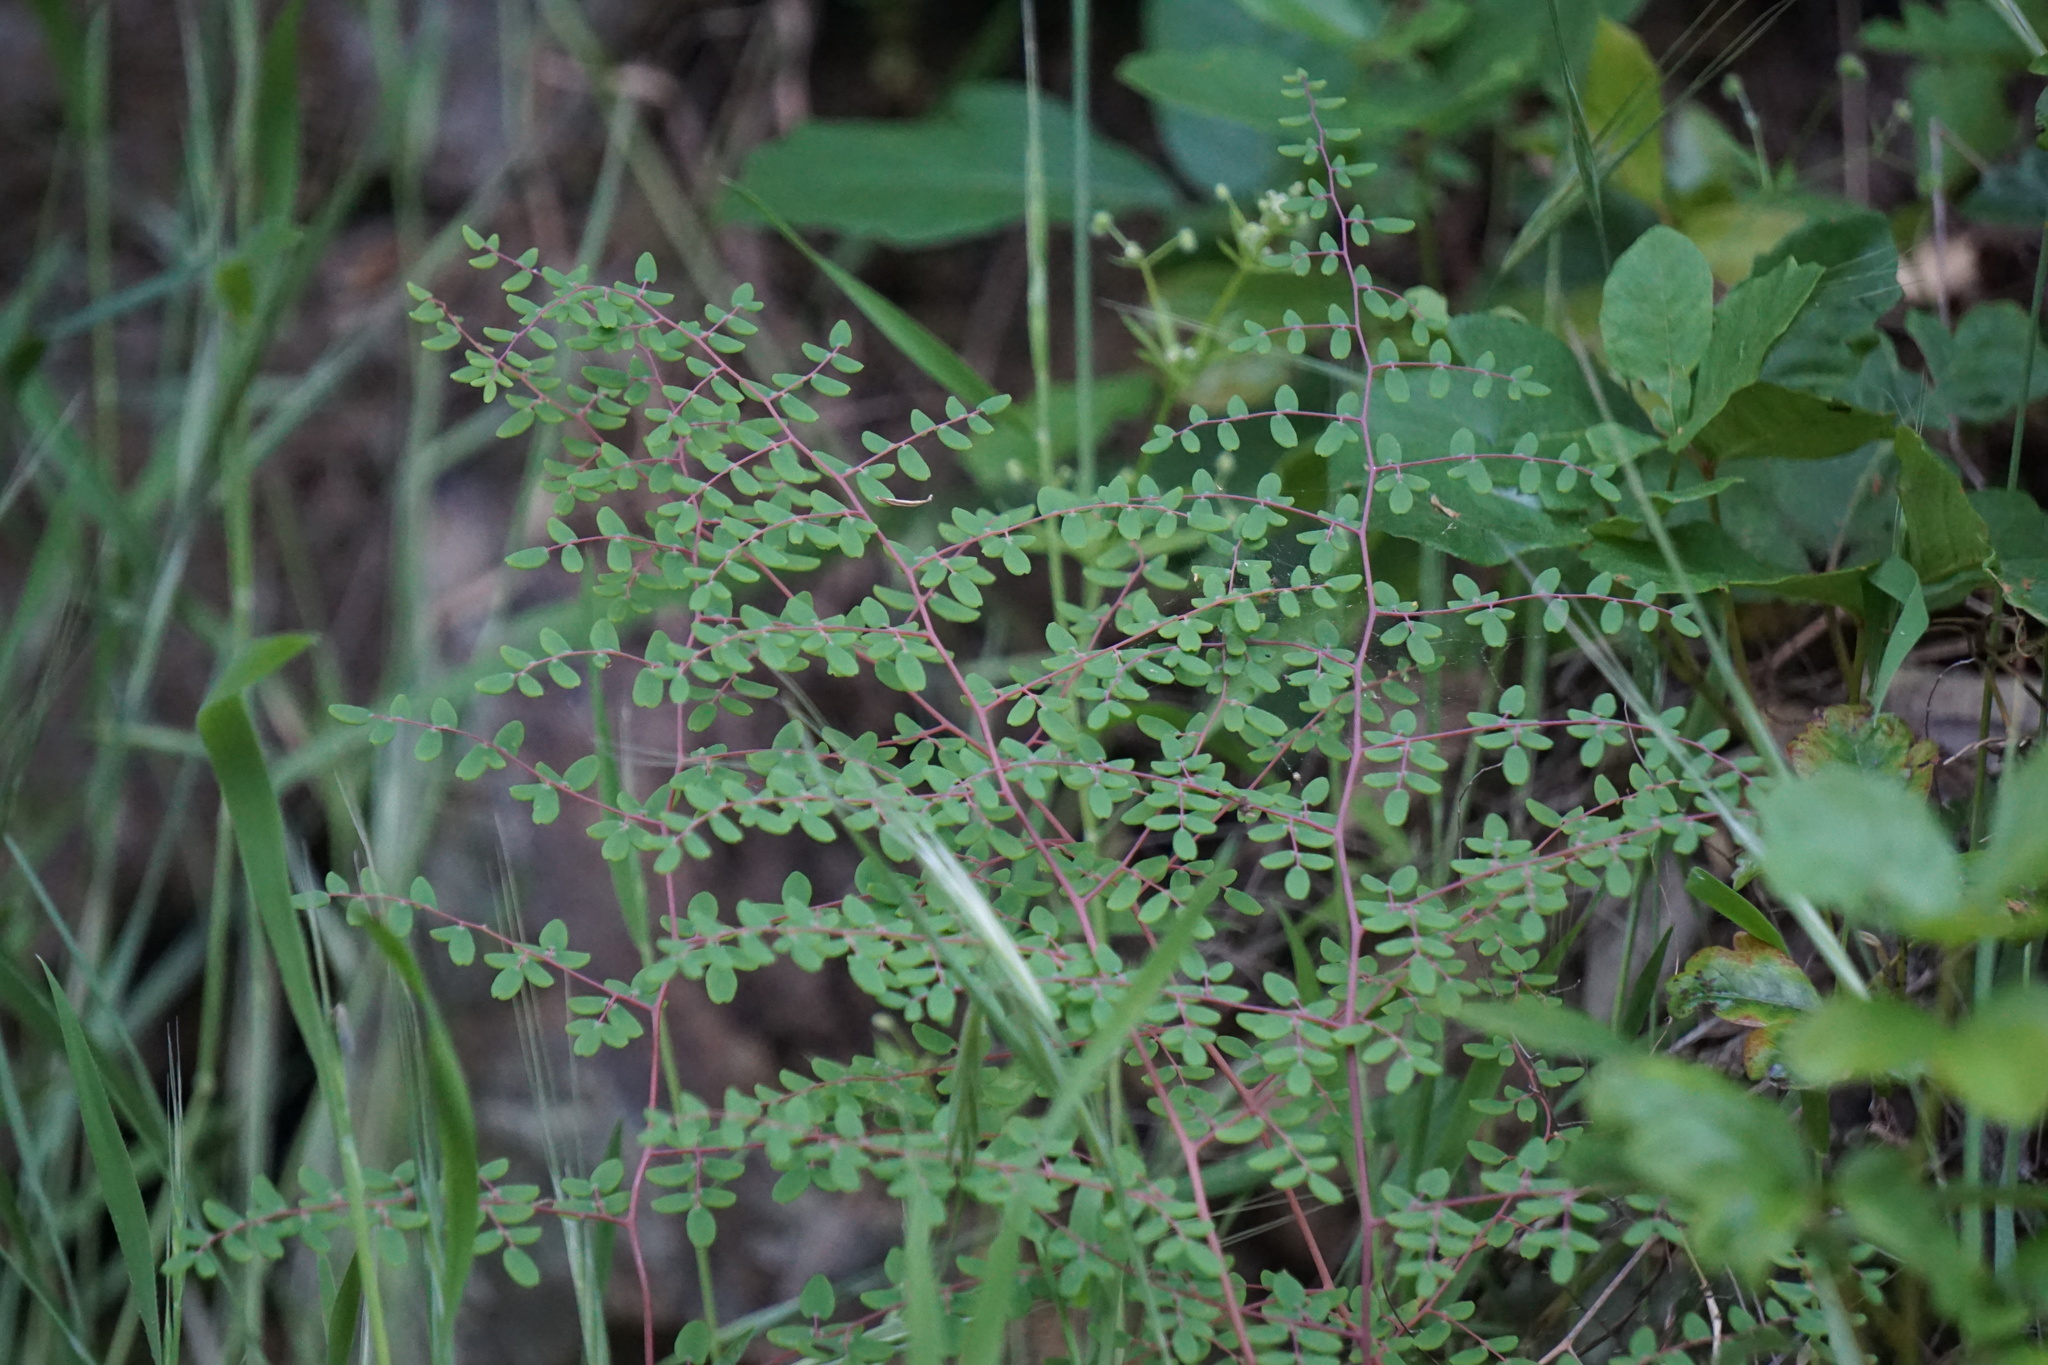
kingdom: Plantae
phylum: Tracheophyta
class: Polypodiopsida
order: Polypodiales
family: Pteridaceae
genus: Pellaea
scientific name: Pellaea andromedifolia
